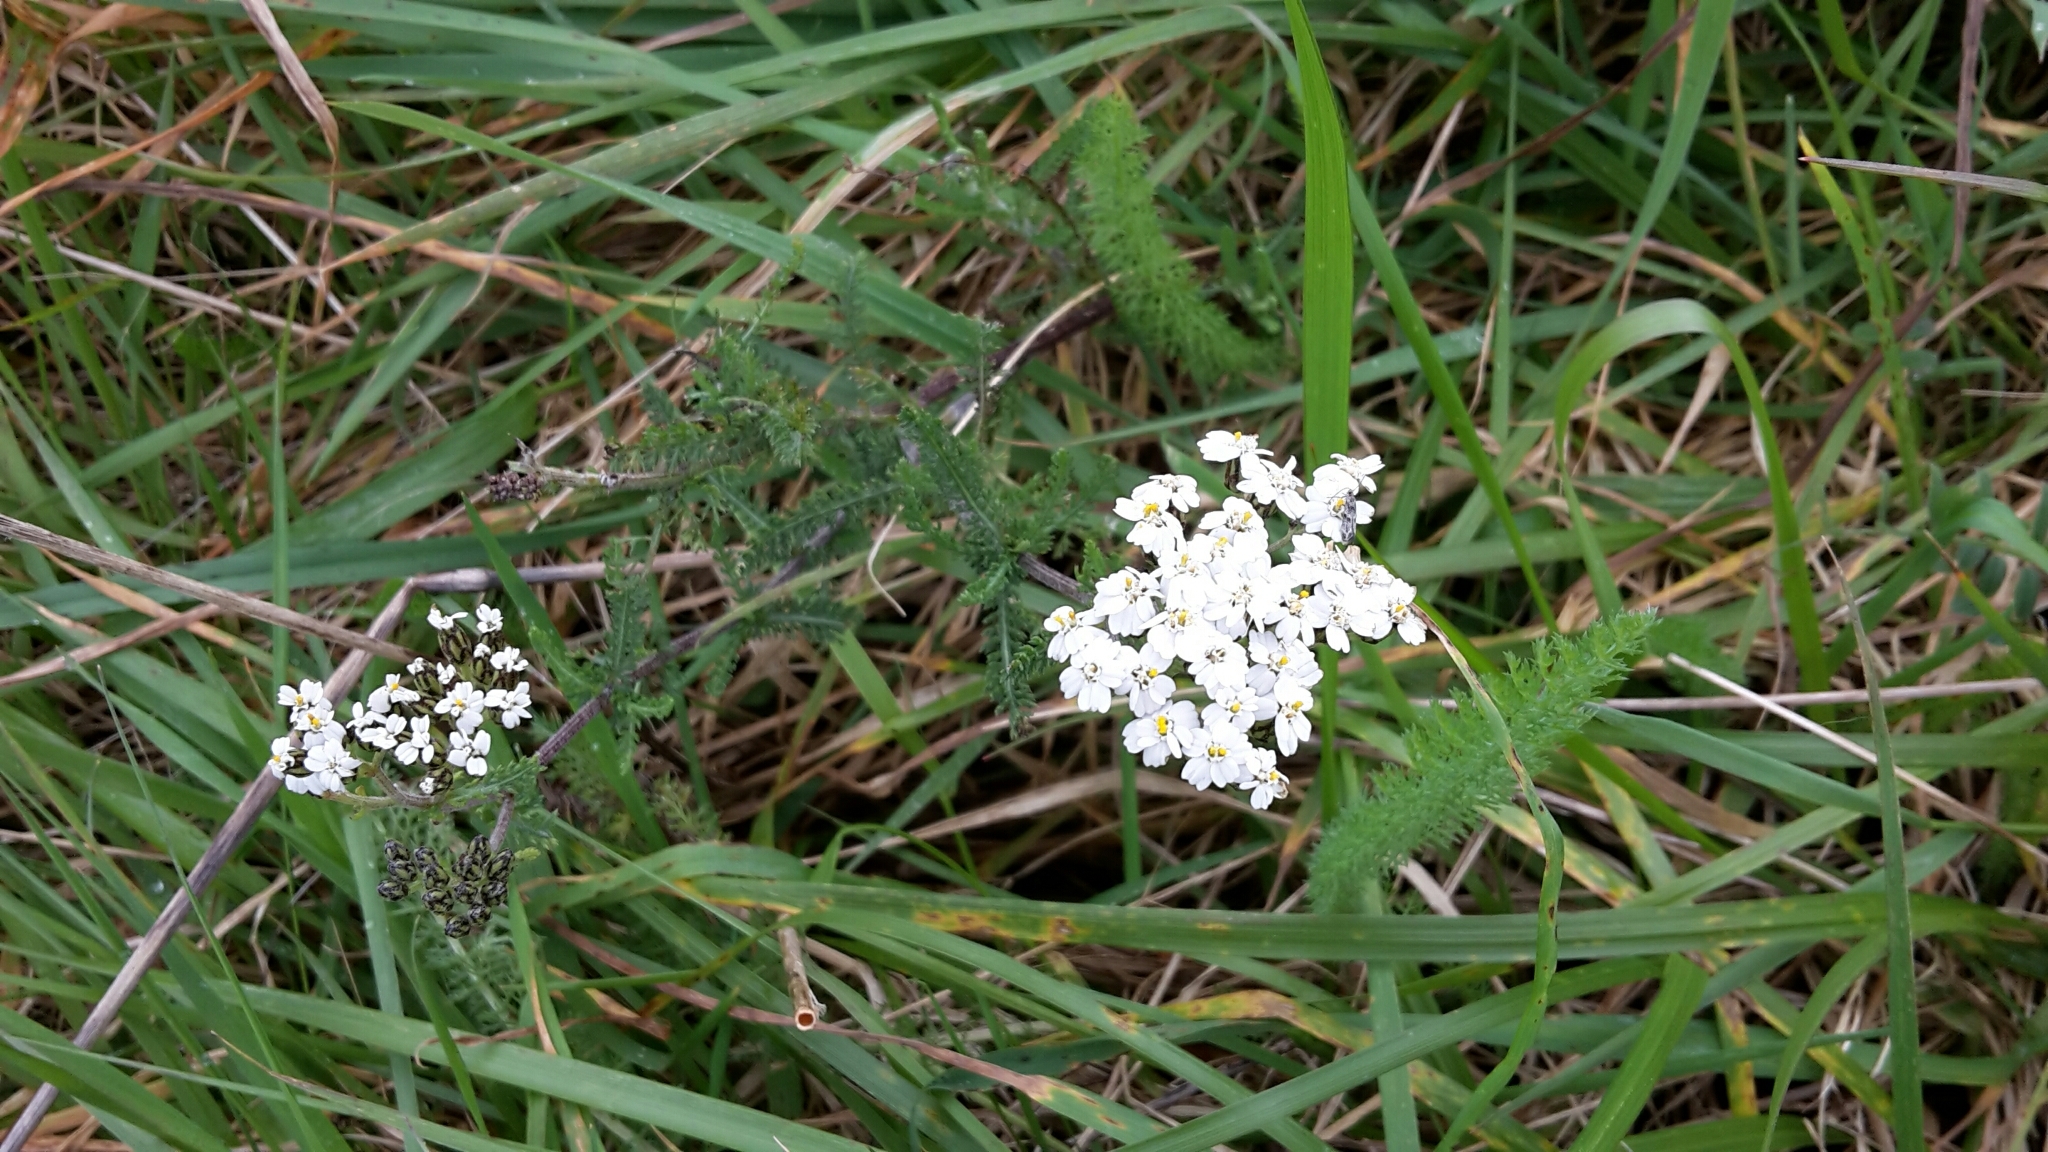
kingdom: Plantae
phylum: Tracheophyta
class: Magnoliopsida
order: Asterales
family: Asteraceae
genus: Achillea
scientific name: Achillea millefolium
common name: Yarrow
